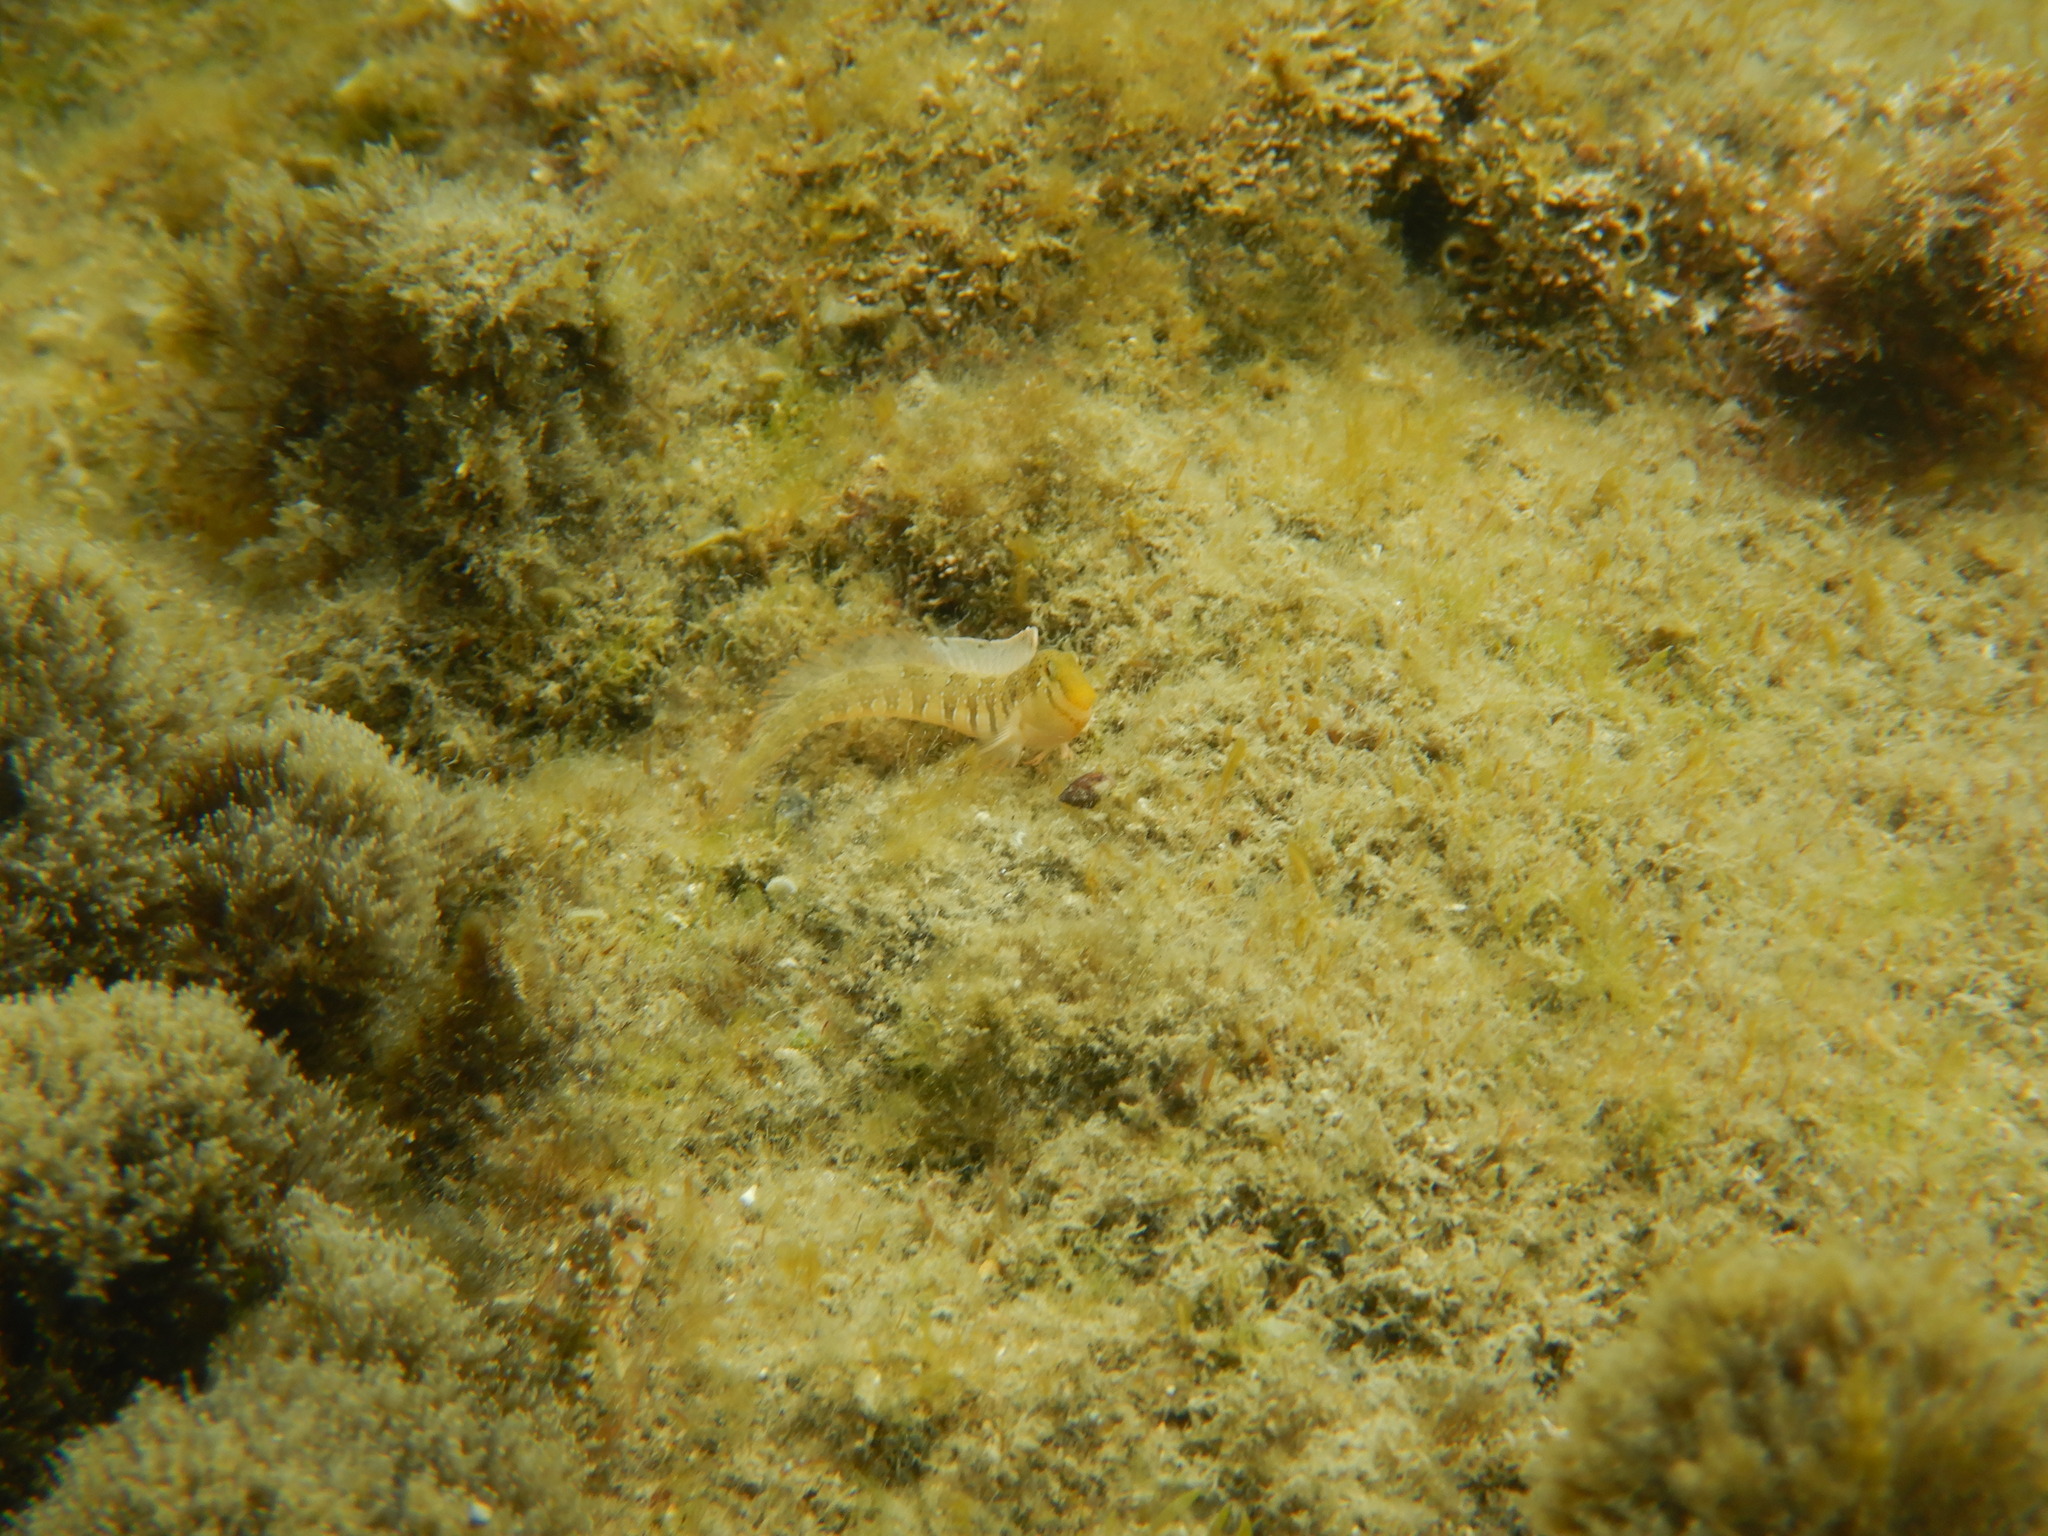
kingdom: Animalia
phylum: Chordata
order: Perciformes
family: Blenniidae
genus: Microlipophrys
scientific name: Microlipophrys dalmatinus
